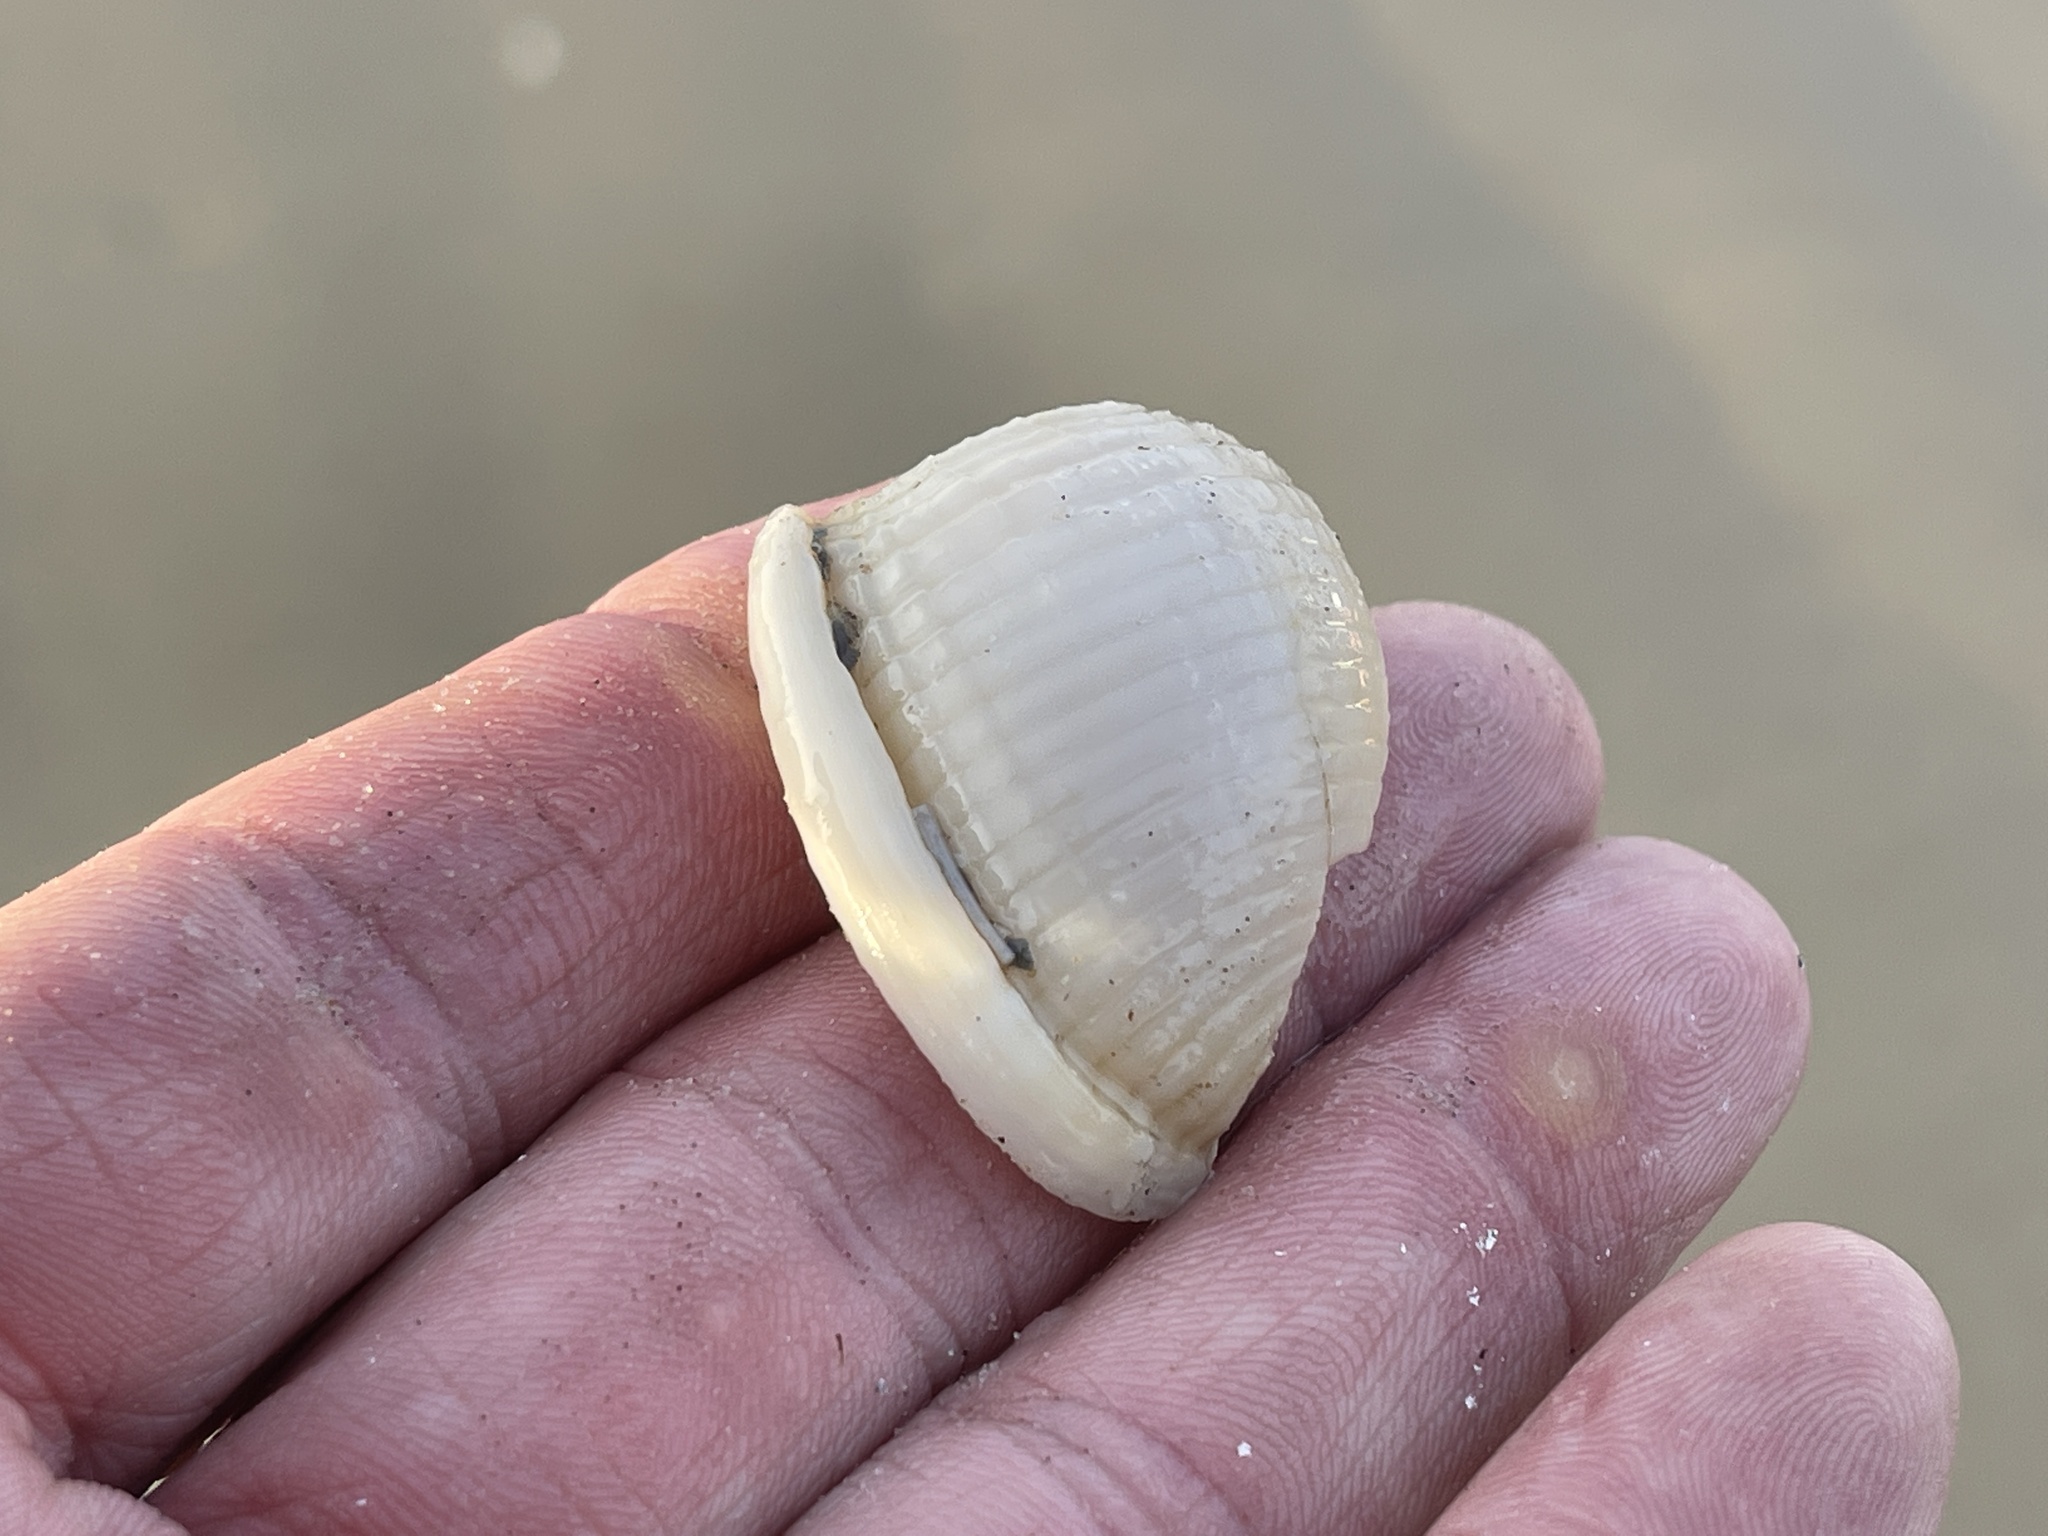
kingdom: Animalia
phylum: Mollusca
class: Gastropoda
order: Littorinimorpha
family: Cassidae
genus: Semicassis
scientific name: Semicassis granulata
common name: Scotch bonnet
